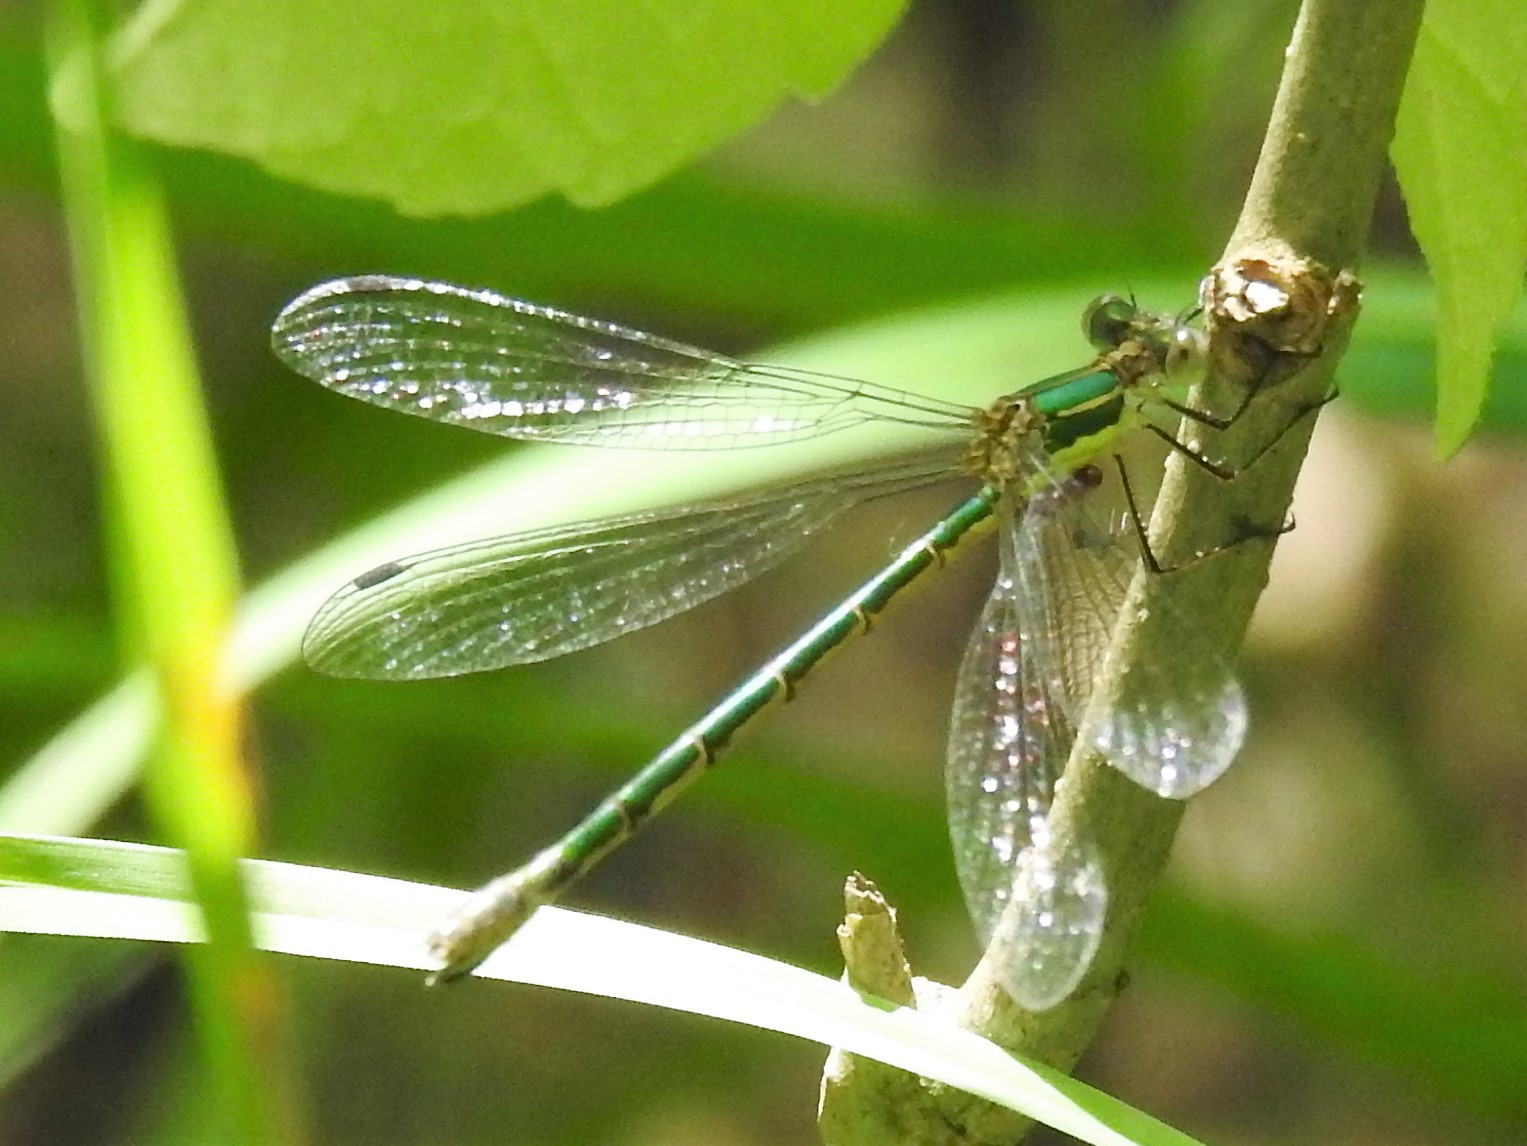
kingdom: Animalia
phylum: Arthropoda
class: Insecta
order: Odonata
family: Lestidae
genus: Lestes
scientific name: Lestes dryas
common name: Scarce emerald damselfly
